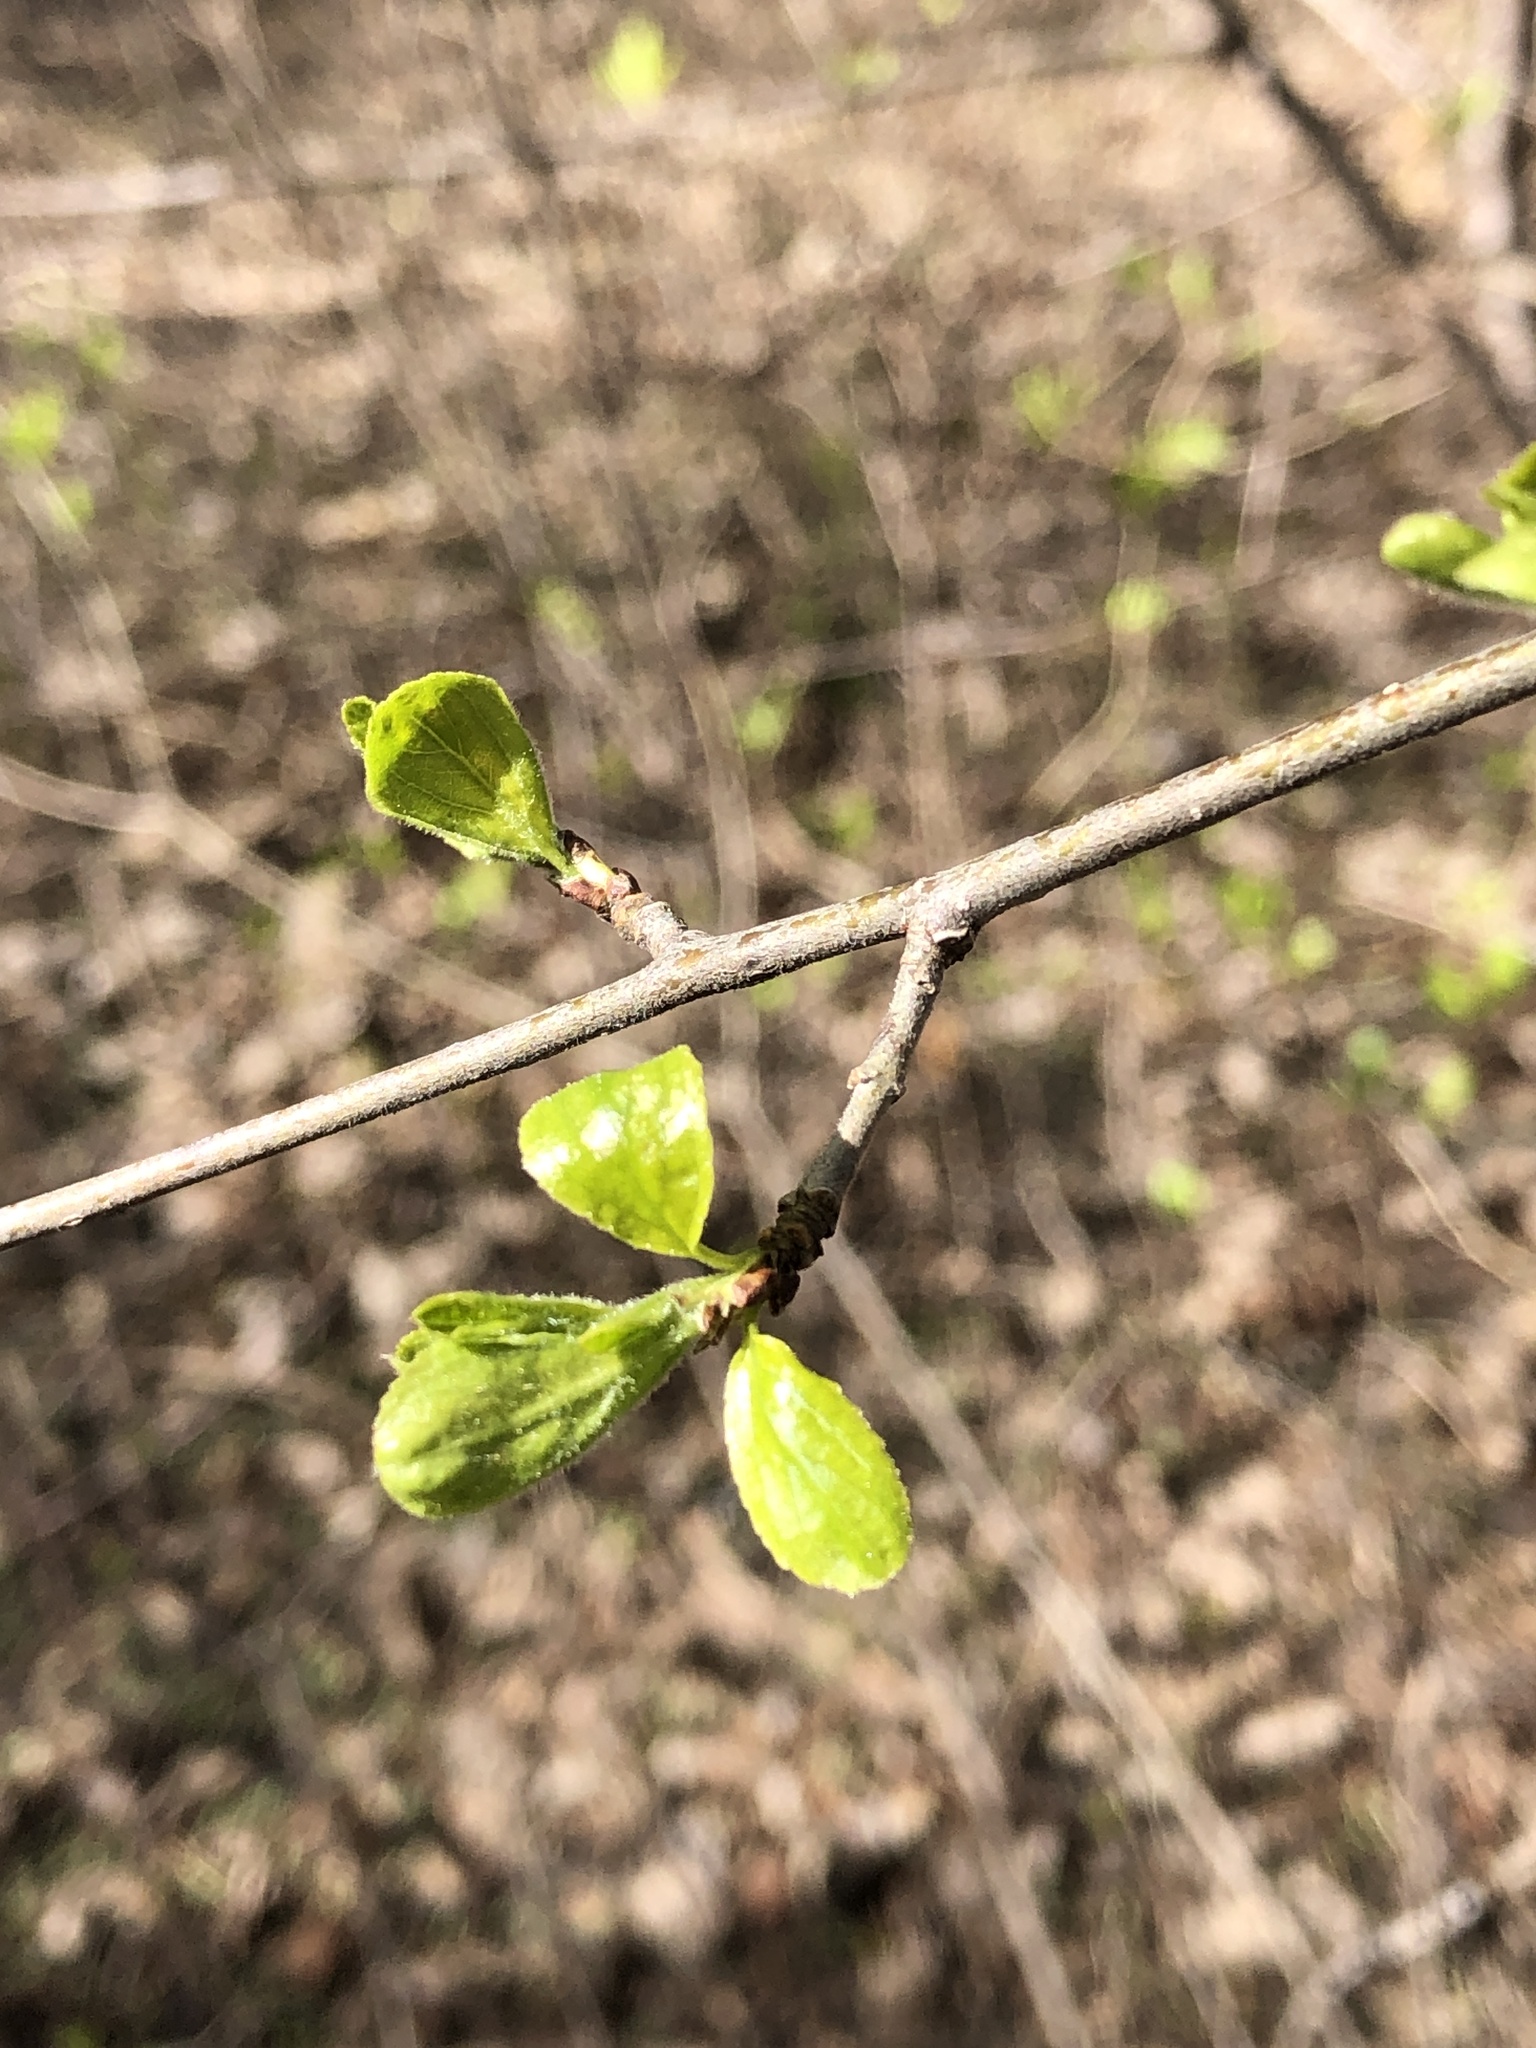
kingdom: Plantae
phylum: Tracheophyta
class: Magnoliopsida
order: Rosales
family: Rhamnaceae
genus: Rhamnus
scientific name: Rhamnus cathartica
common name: Common buckthorn
